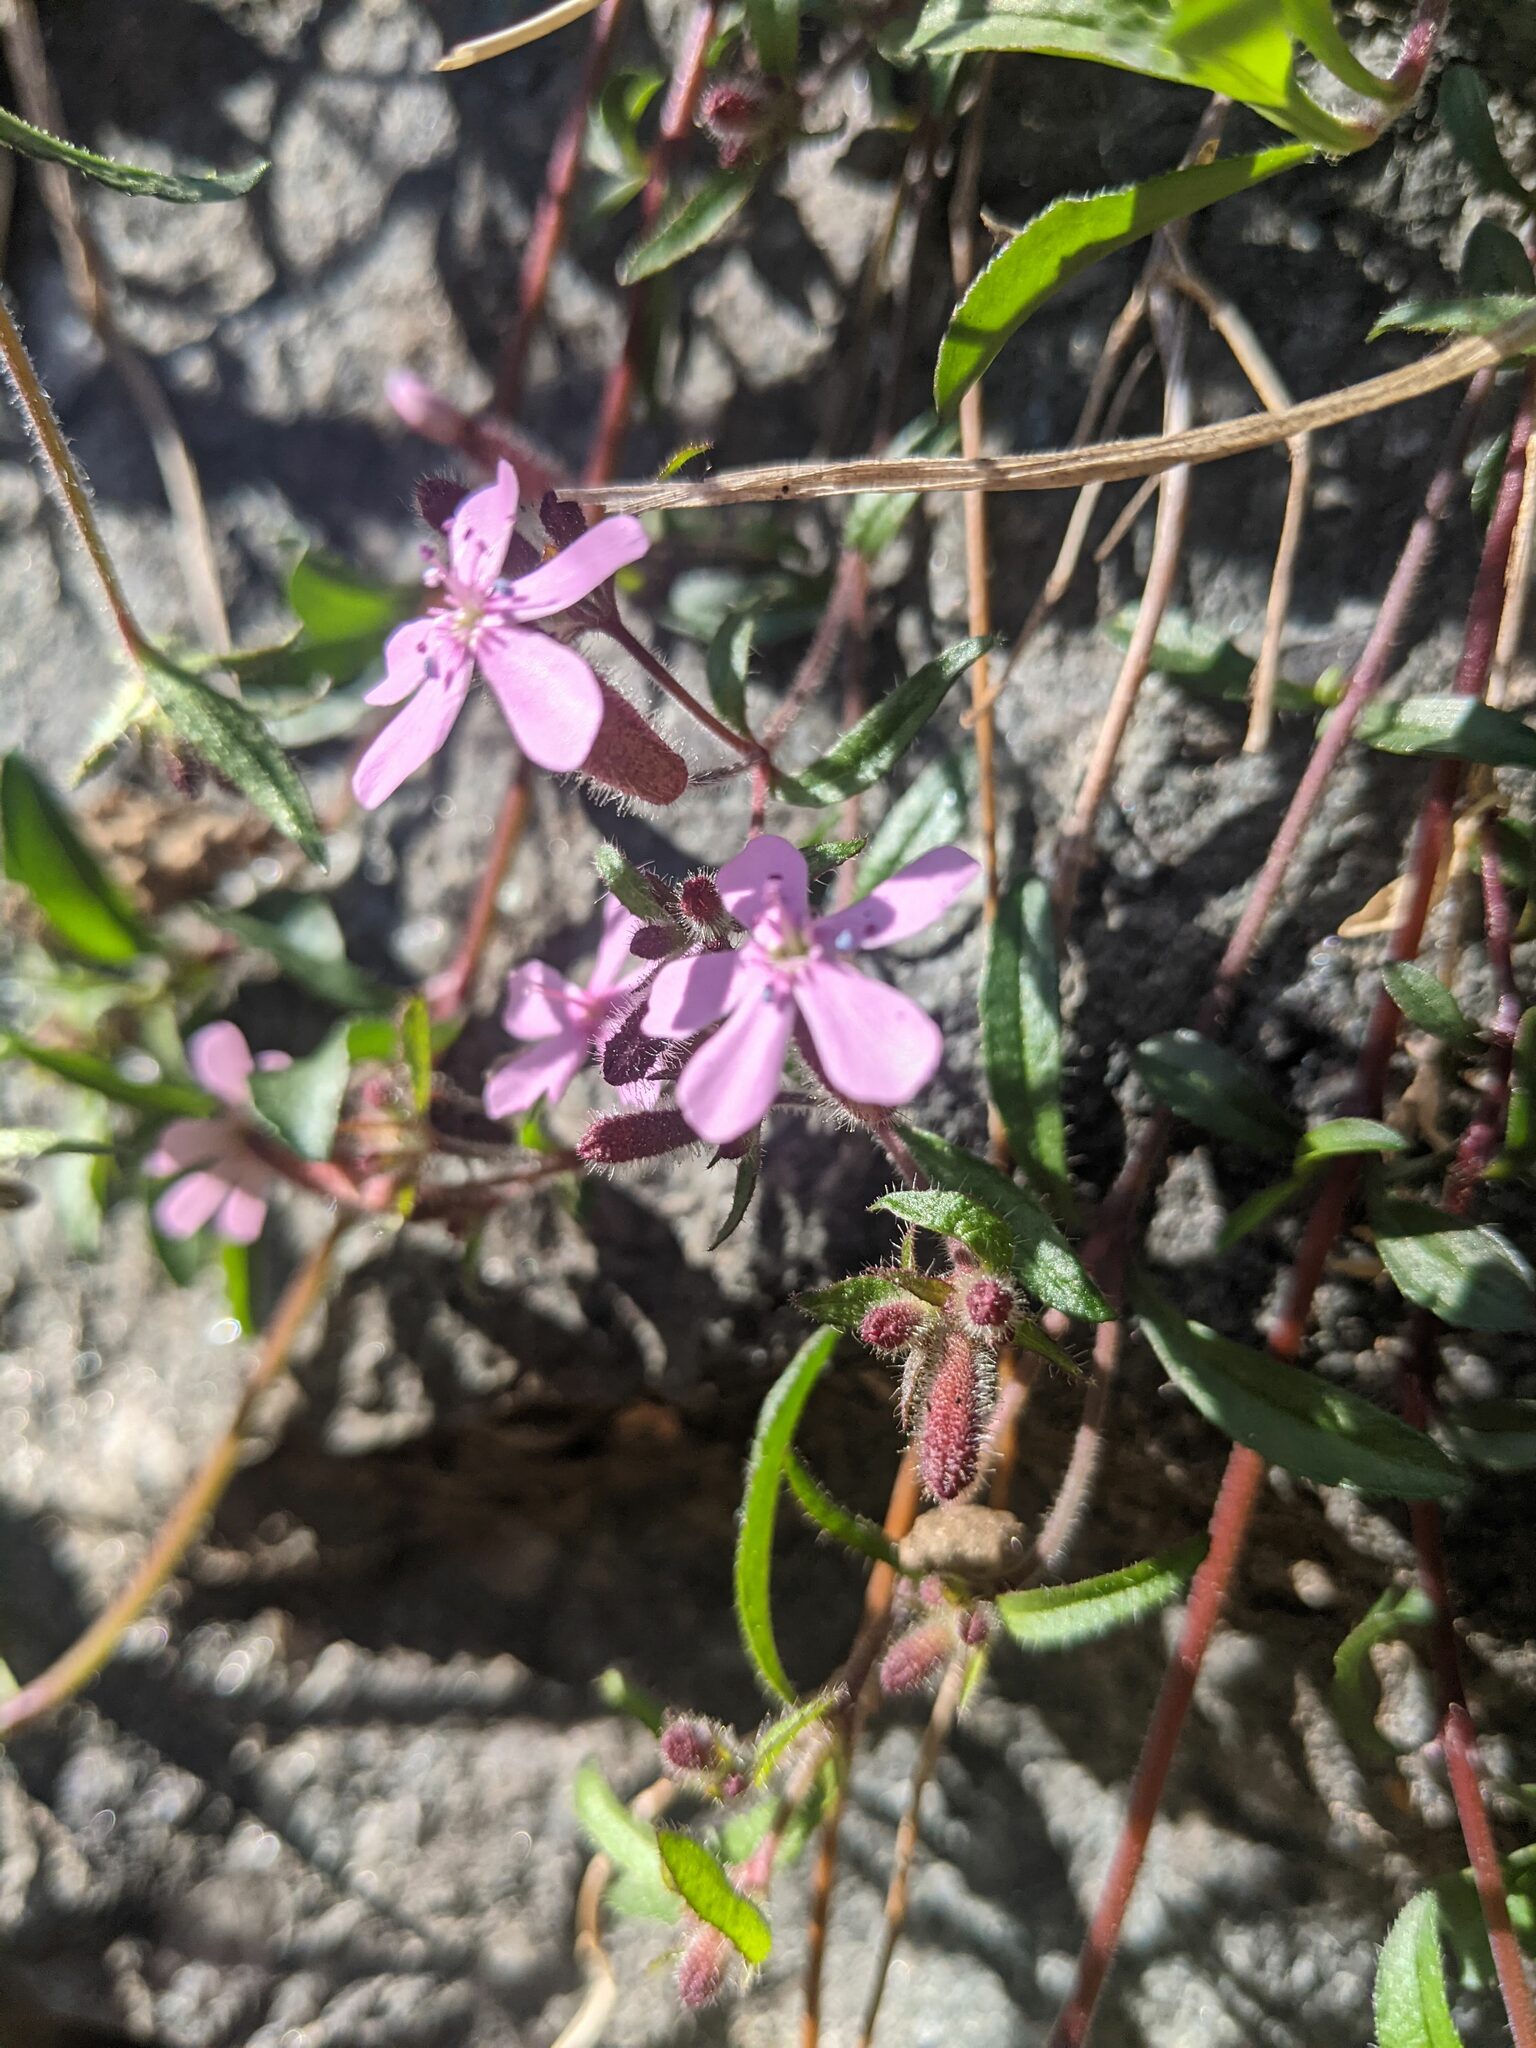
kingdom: Plantae
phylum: Tracheophyta
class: Magnoliopsida
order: Caryophyllales
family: Caryophyllaceae
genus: Saponaria
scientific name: Saponaria ocymoides
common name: Rock soapwort
